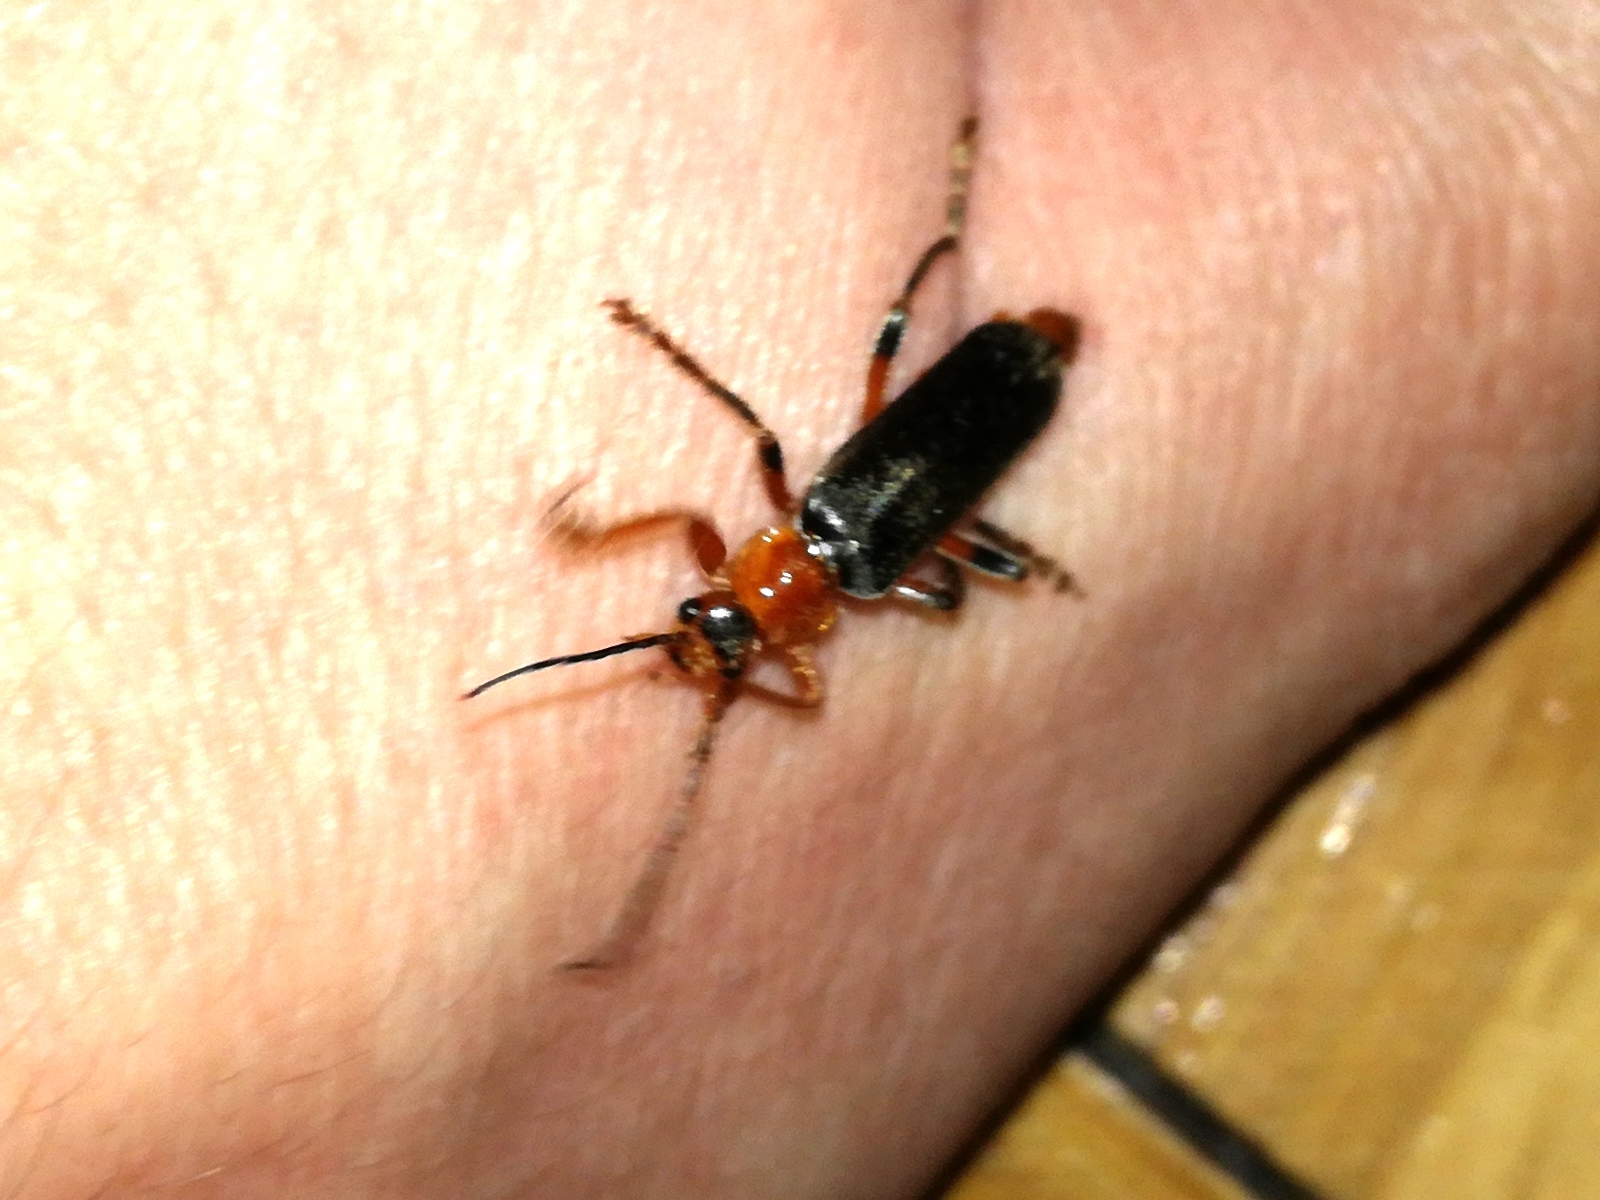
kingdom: Animalia
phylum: Arthropoda
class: Insecta
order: Coleoptera
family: Cantharidae
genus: Cantharis
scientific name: Cantharis livida
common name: Livid soldier beetle
